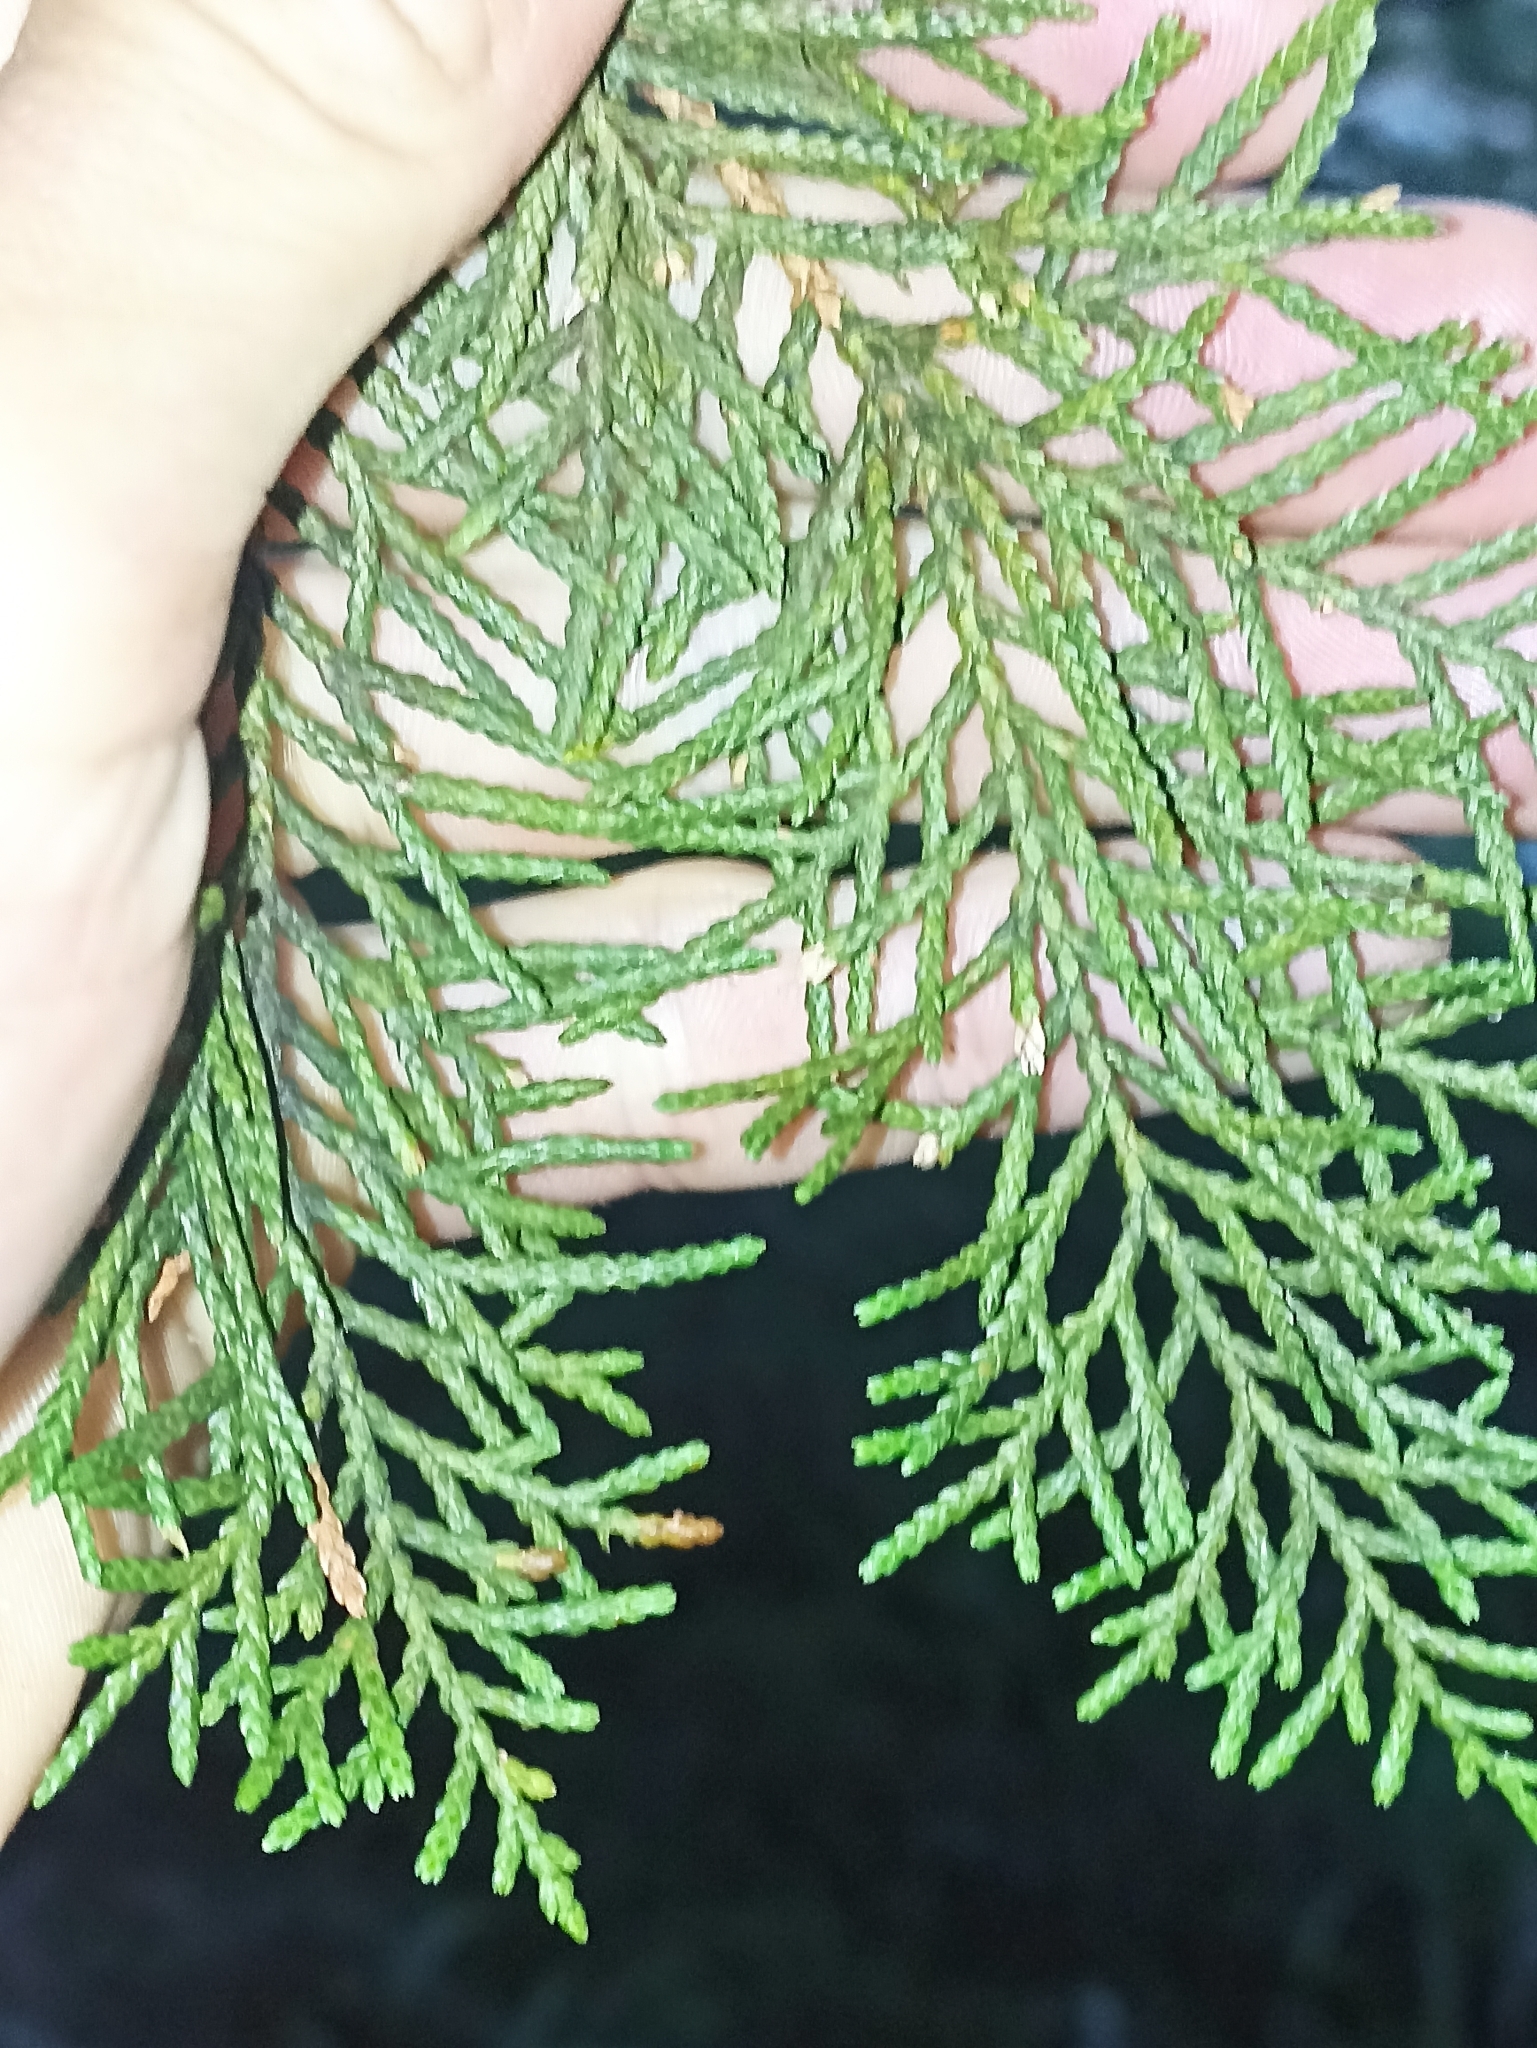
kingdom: Plantae
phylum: Tracheophyta
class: Pinopsida
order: Pinales
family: Cupressaceae
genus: Libocedrus
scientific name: Libocedrus bidwillii
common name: Cedar
